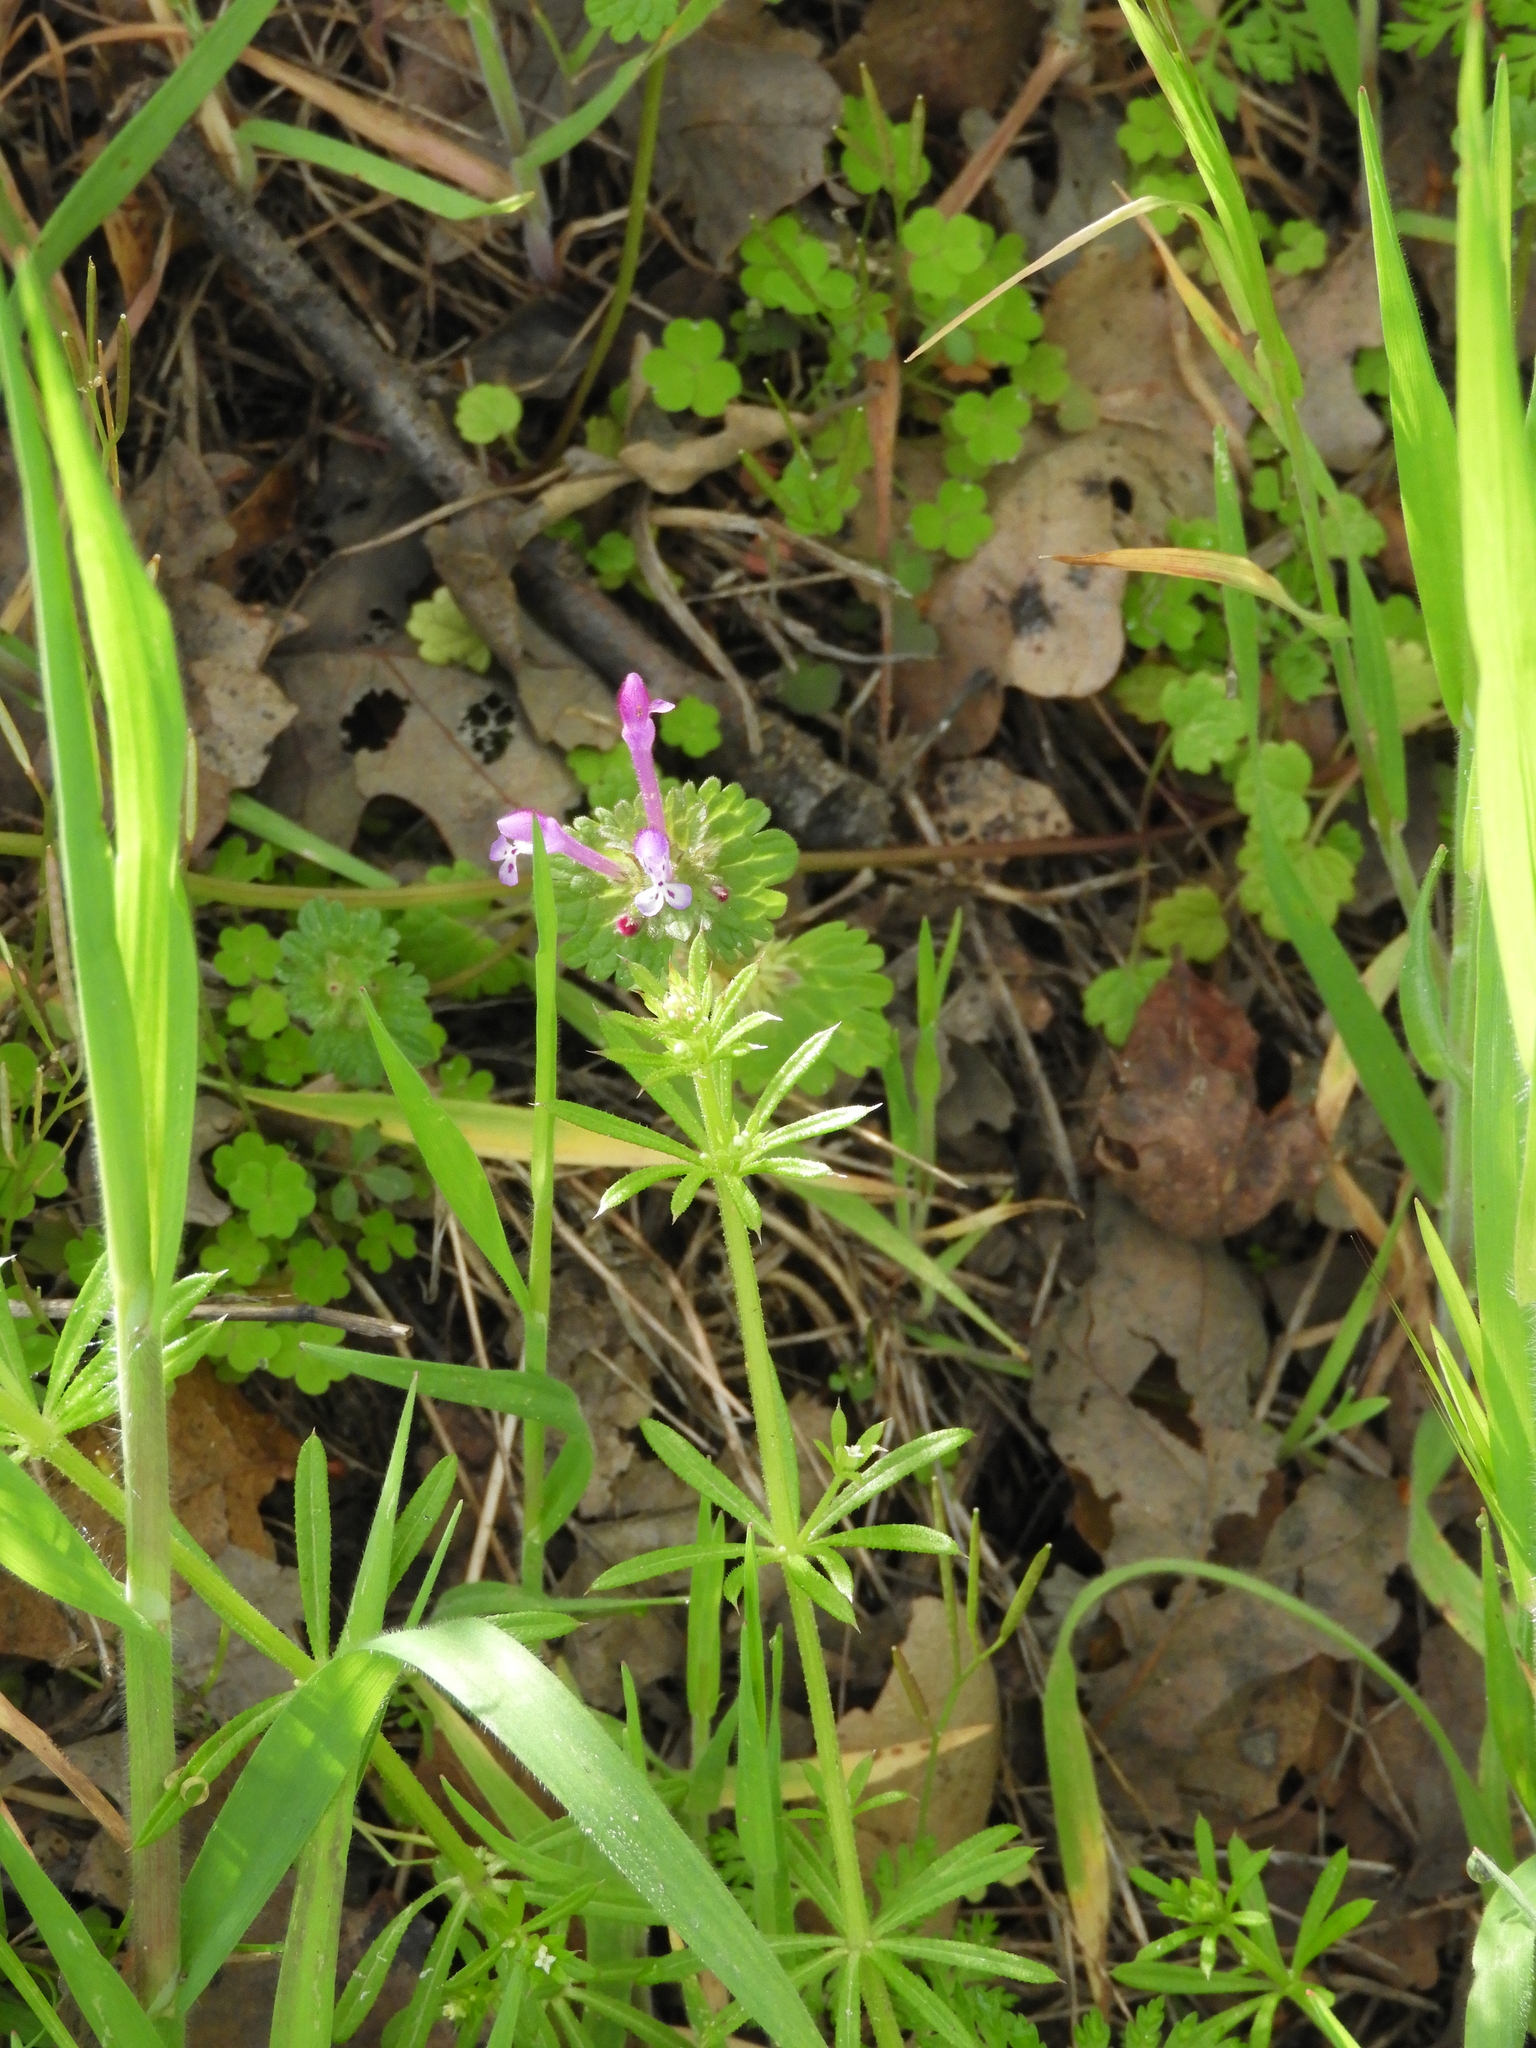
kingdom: Plantae
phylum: Tracheophyta
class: Magnoliopsida
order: Lamiales
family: Lamiaceae
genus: Lamium
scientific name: Lamium amplexicaule
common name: Henbit dead-nettle
